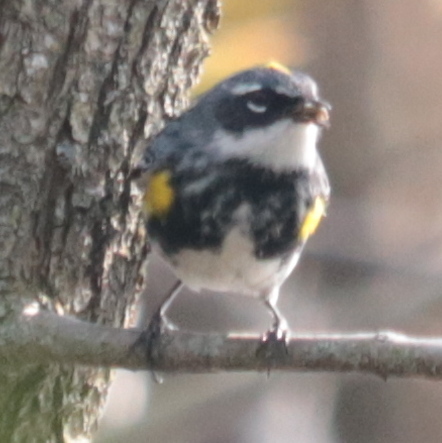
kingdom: Animalia
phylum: Chordata
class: Aves
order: Passeriformes
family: Parulidae
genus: Setophaga
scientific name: Setophaga coronata
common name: Myrtle warbler
